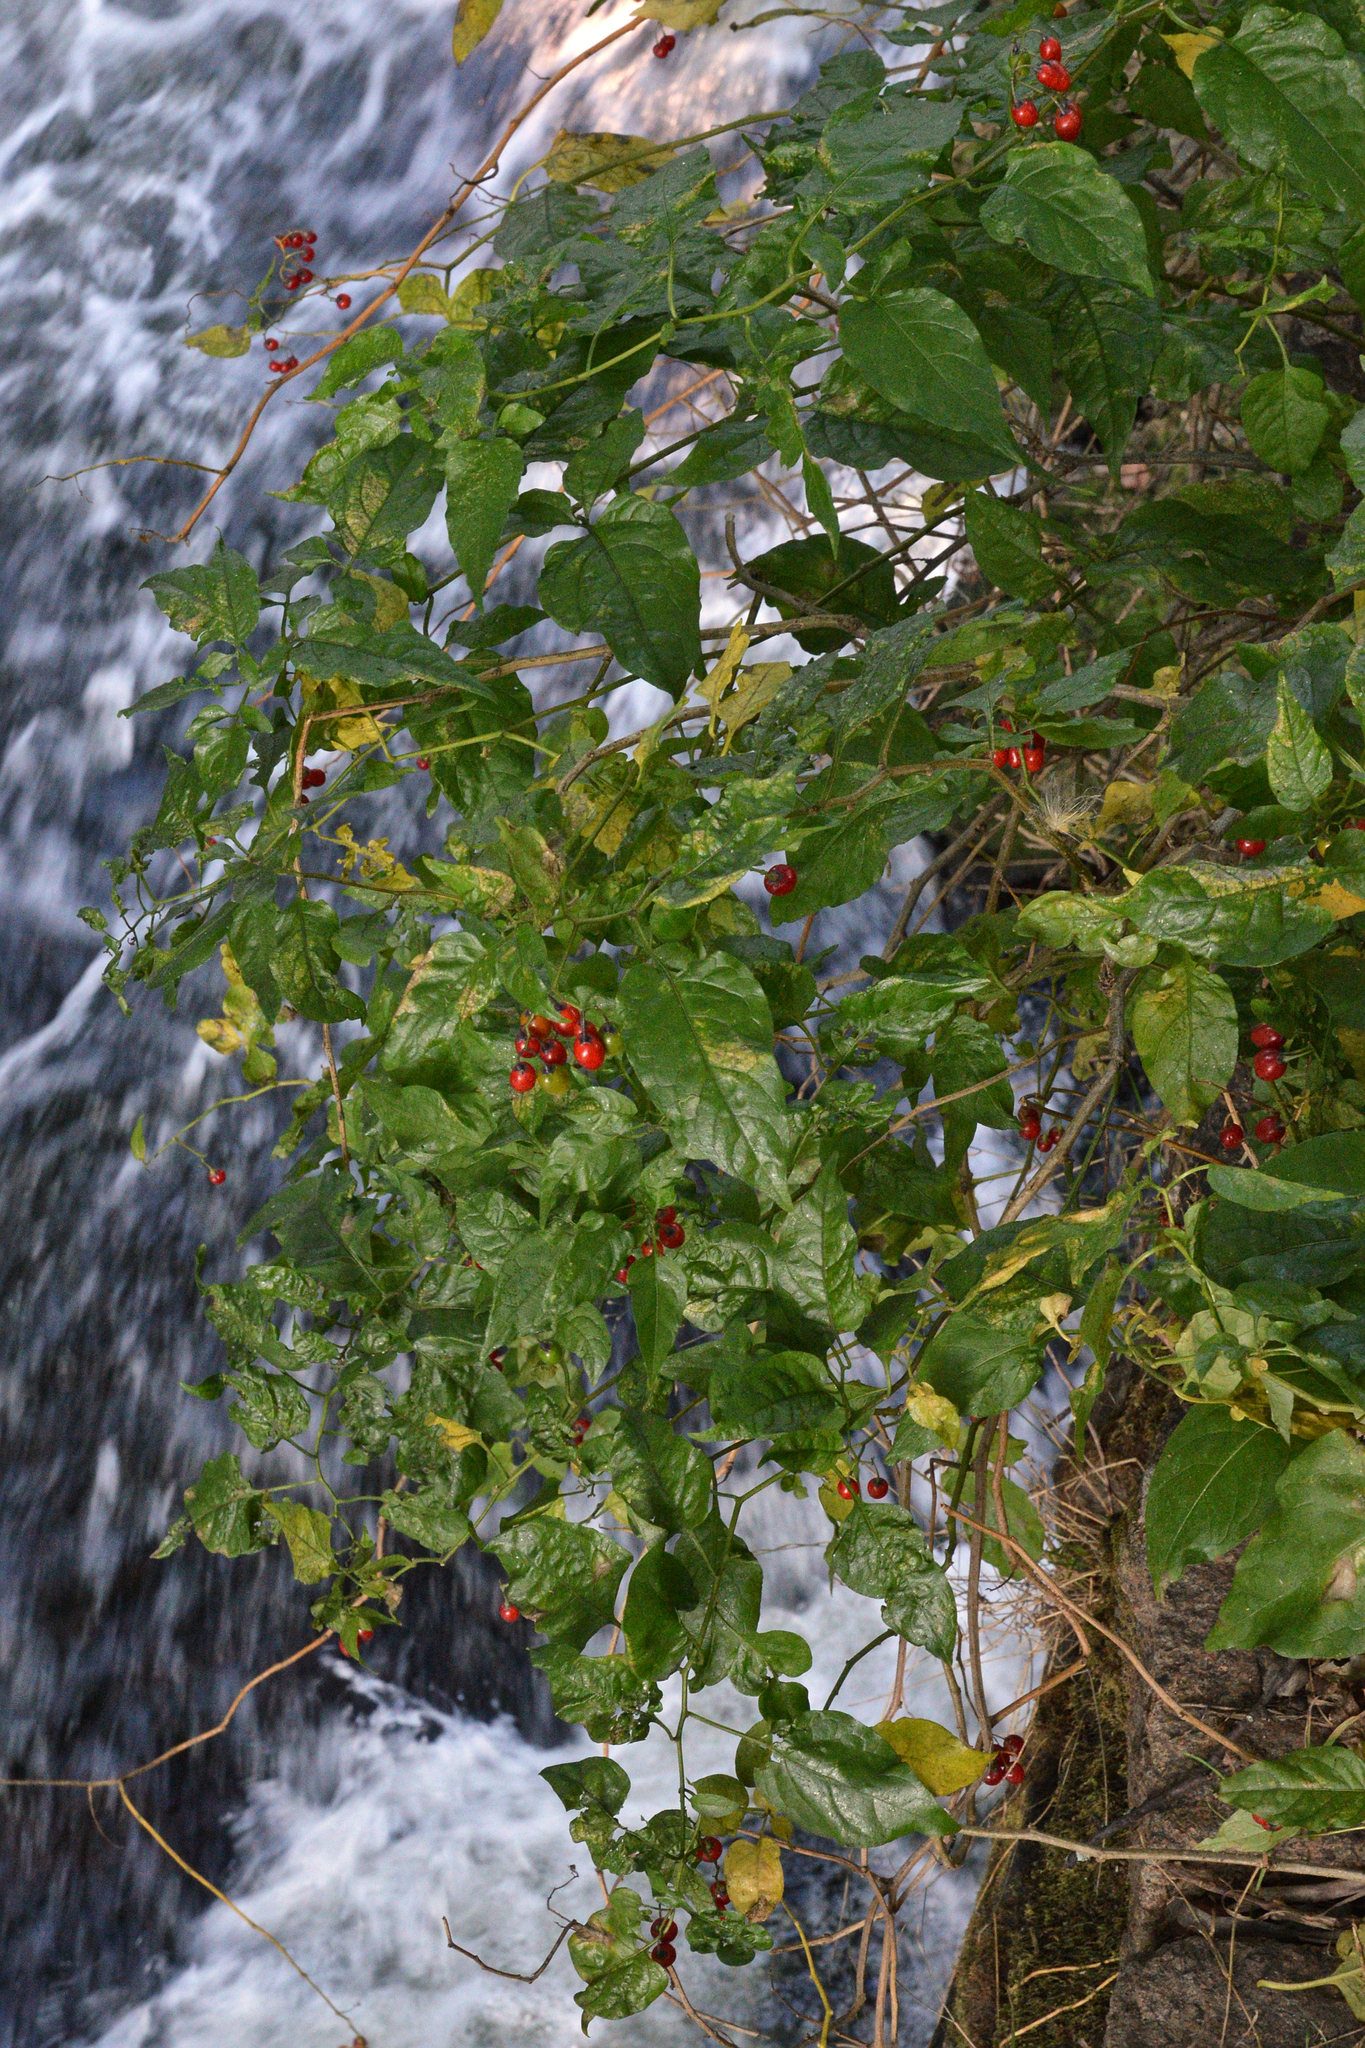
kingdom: Plantae
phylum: Tracheophyta
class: Magnoliopsida
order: Solanales
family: Solanaceae
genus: Solanum
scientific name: Solanum dulcamara
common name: Climbing nightshade
